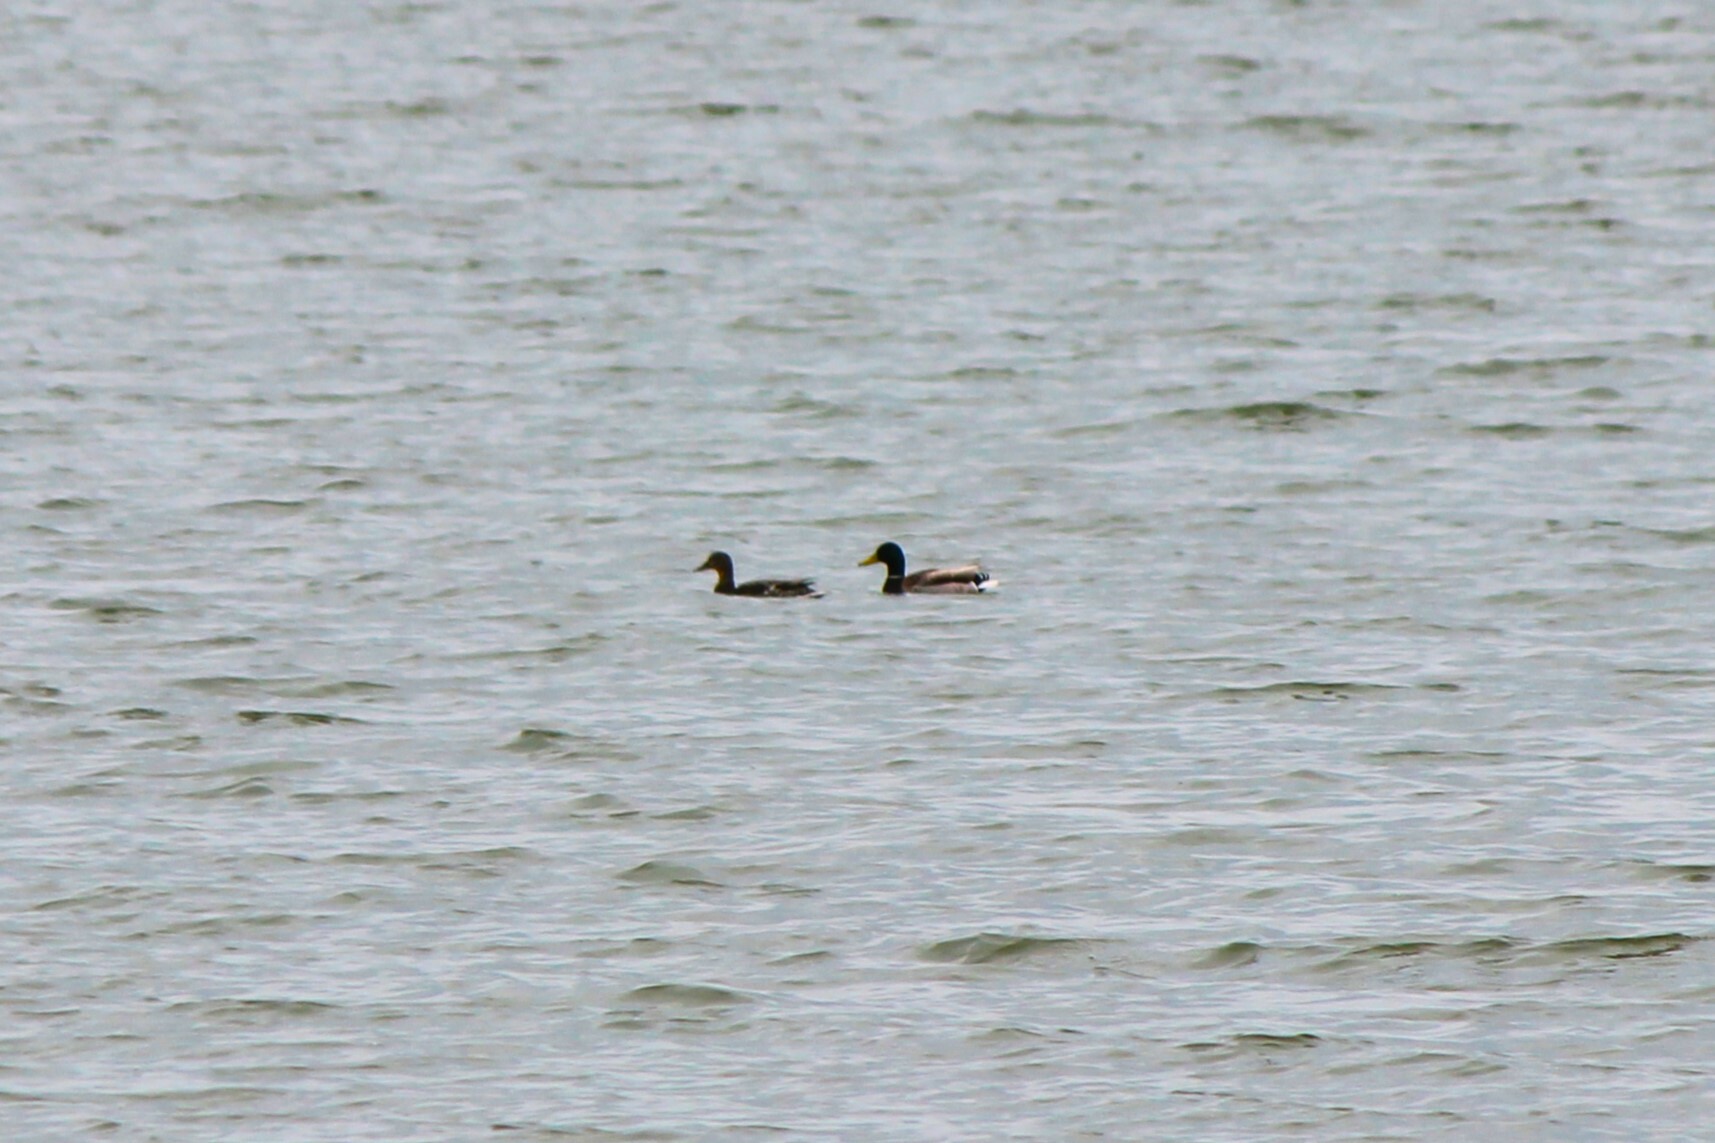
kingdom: Animalia
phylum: Chordata
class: Aves
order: Anseriformes
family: Anatidae
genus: Anas
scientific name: Anas platyrhynchos
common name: Mallard
